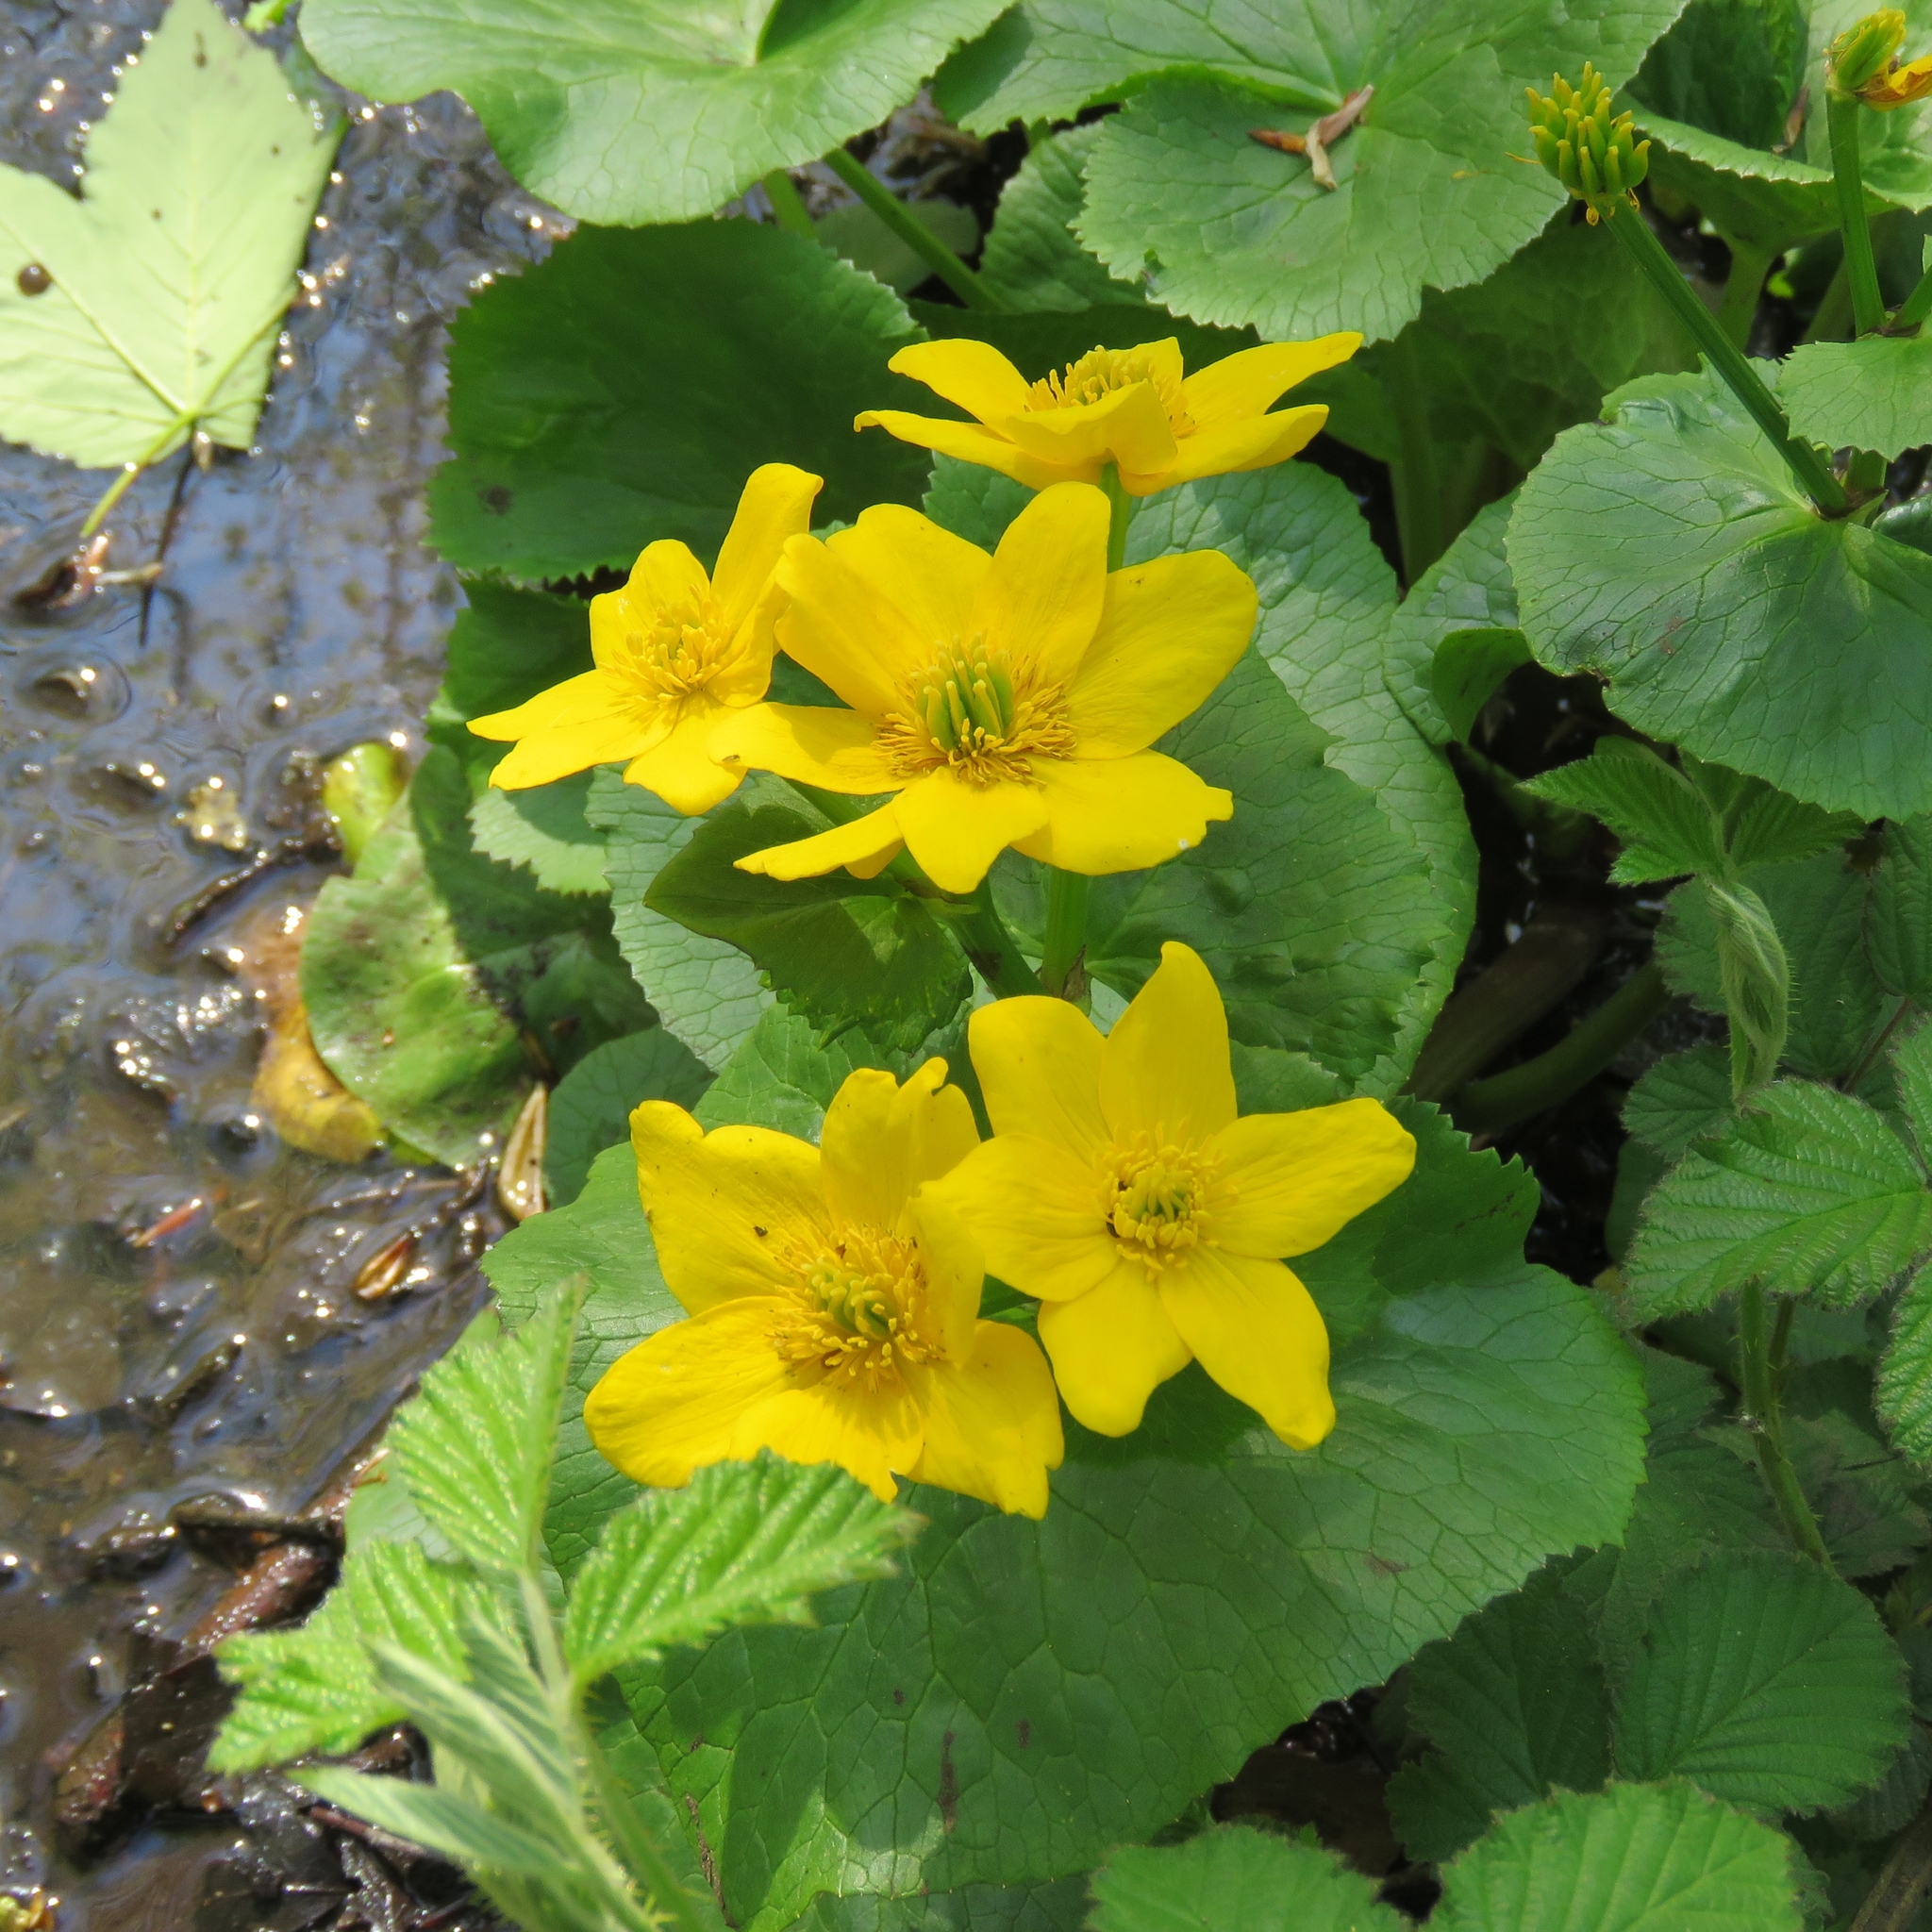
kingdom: Plantae
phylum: Tracheophyta
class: Magnoliopsida
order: Ranunculales
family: Ranunculaceae
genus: Caltha
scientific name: Caltha palustris
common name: Marsh marigold
